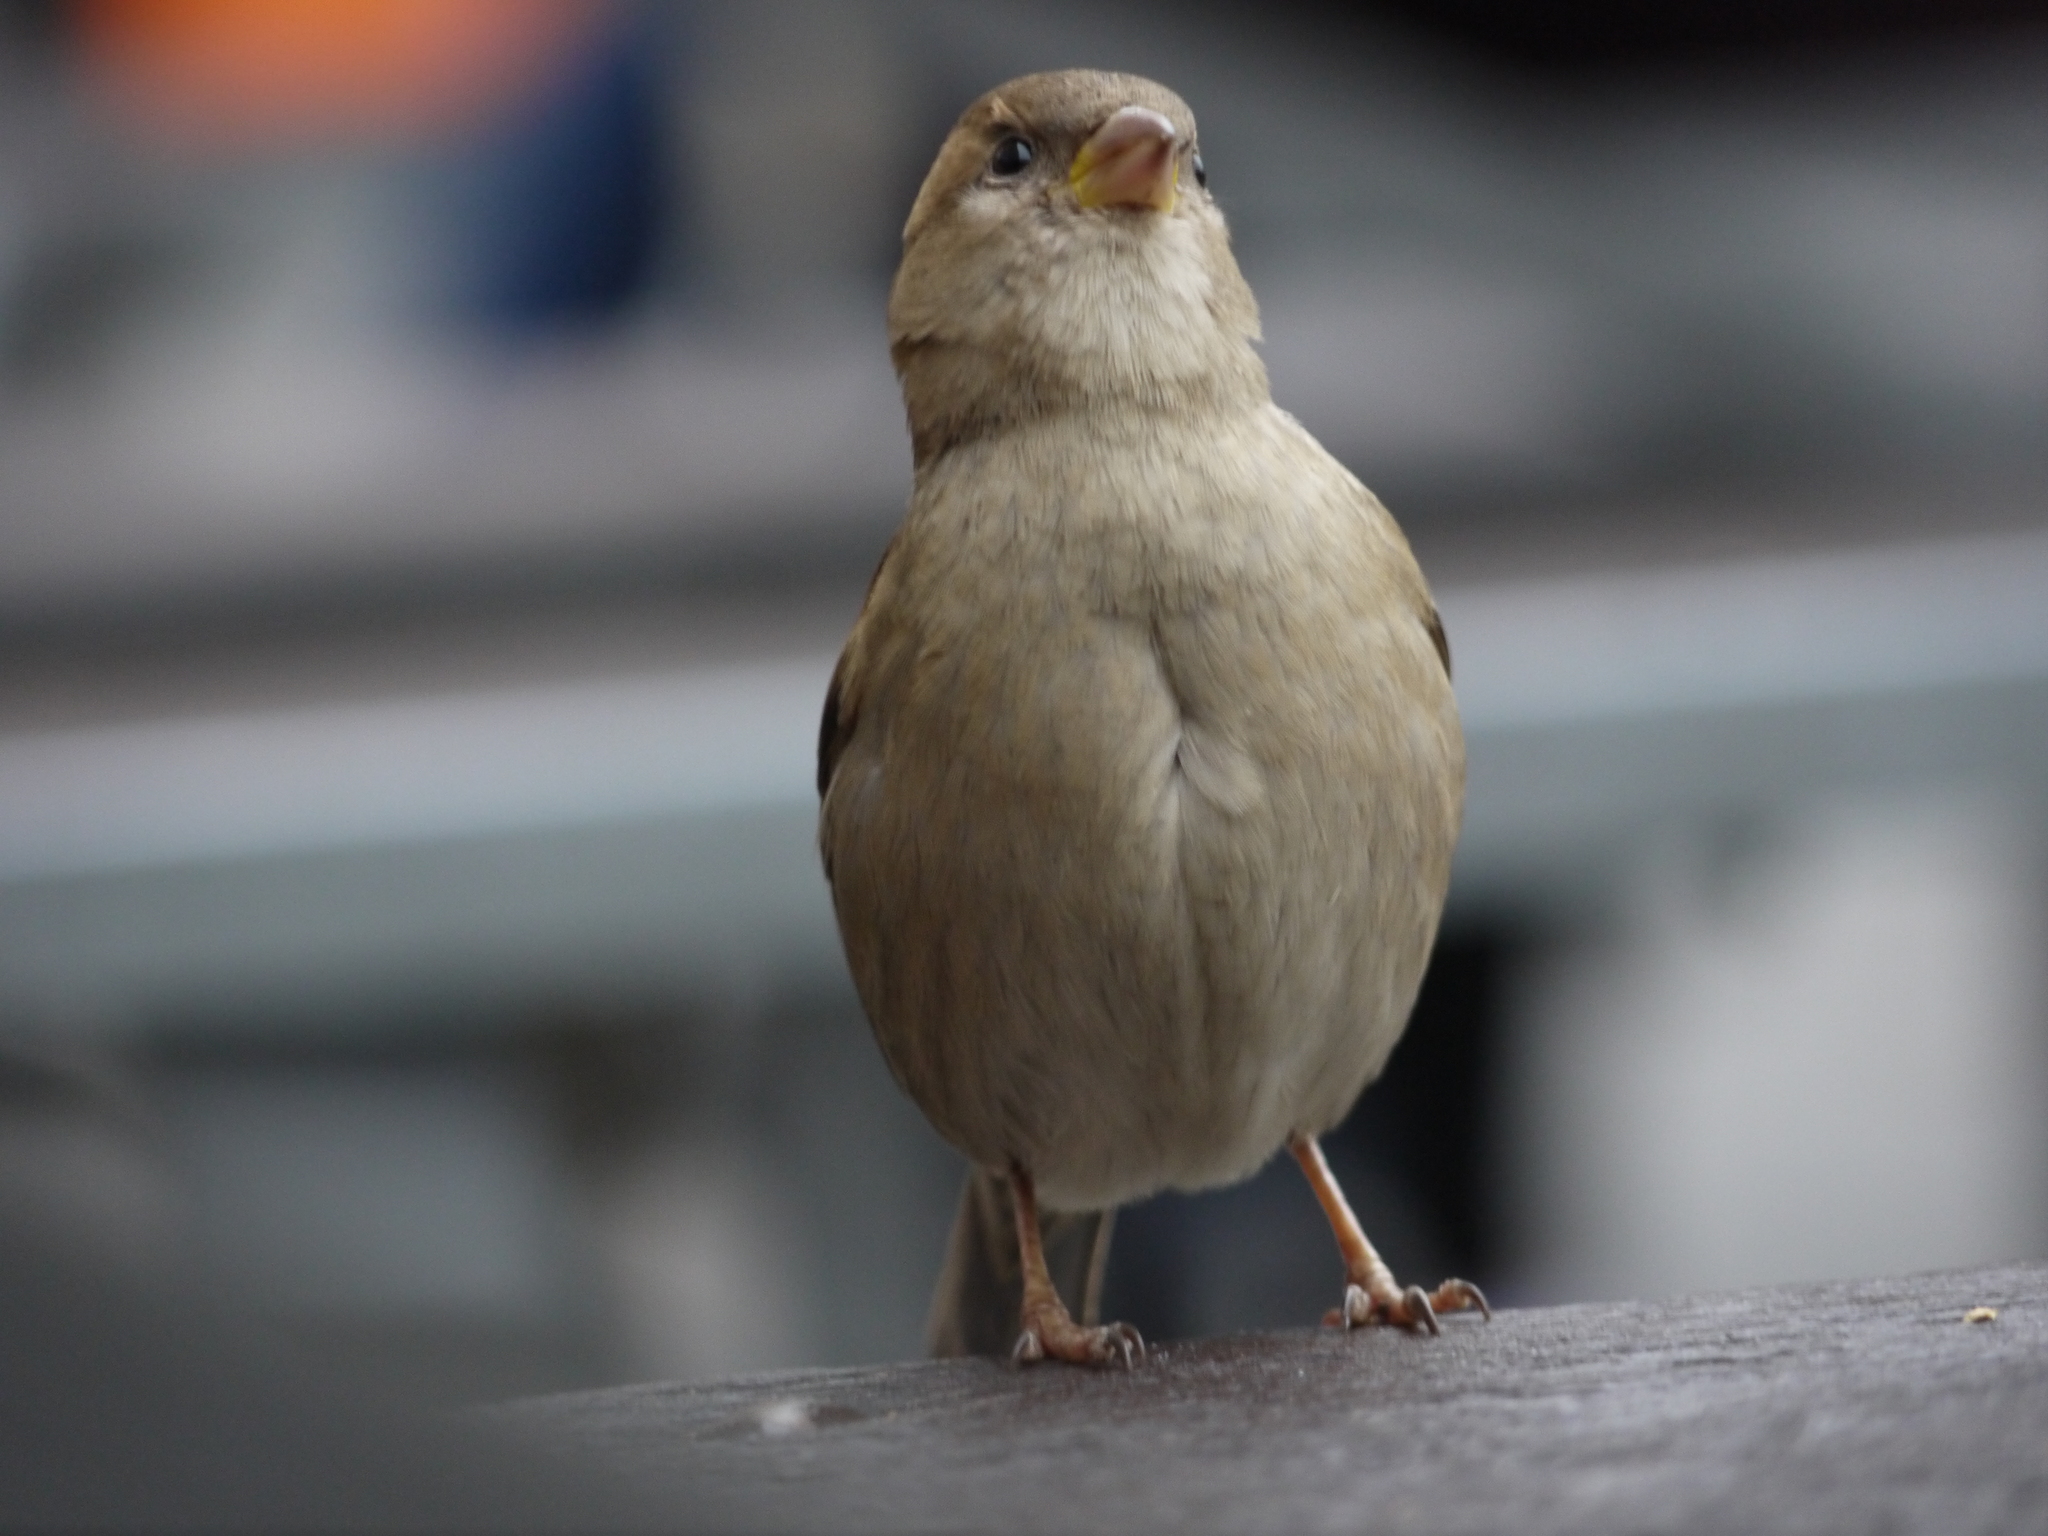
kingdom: Animalia
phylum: Chordata
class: Aves
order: Passeriformes
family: Passeridae
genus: Passer
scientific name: Passer domesticus
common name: House sparrow
